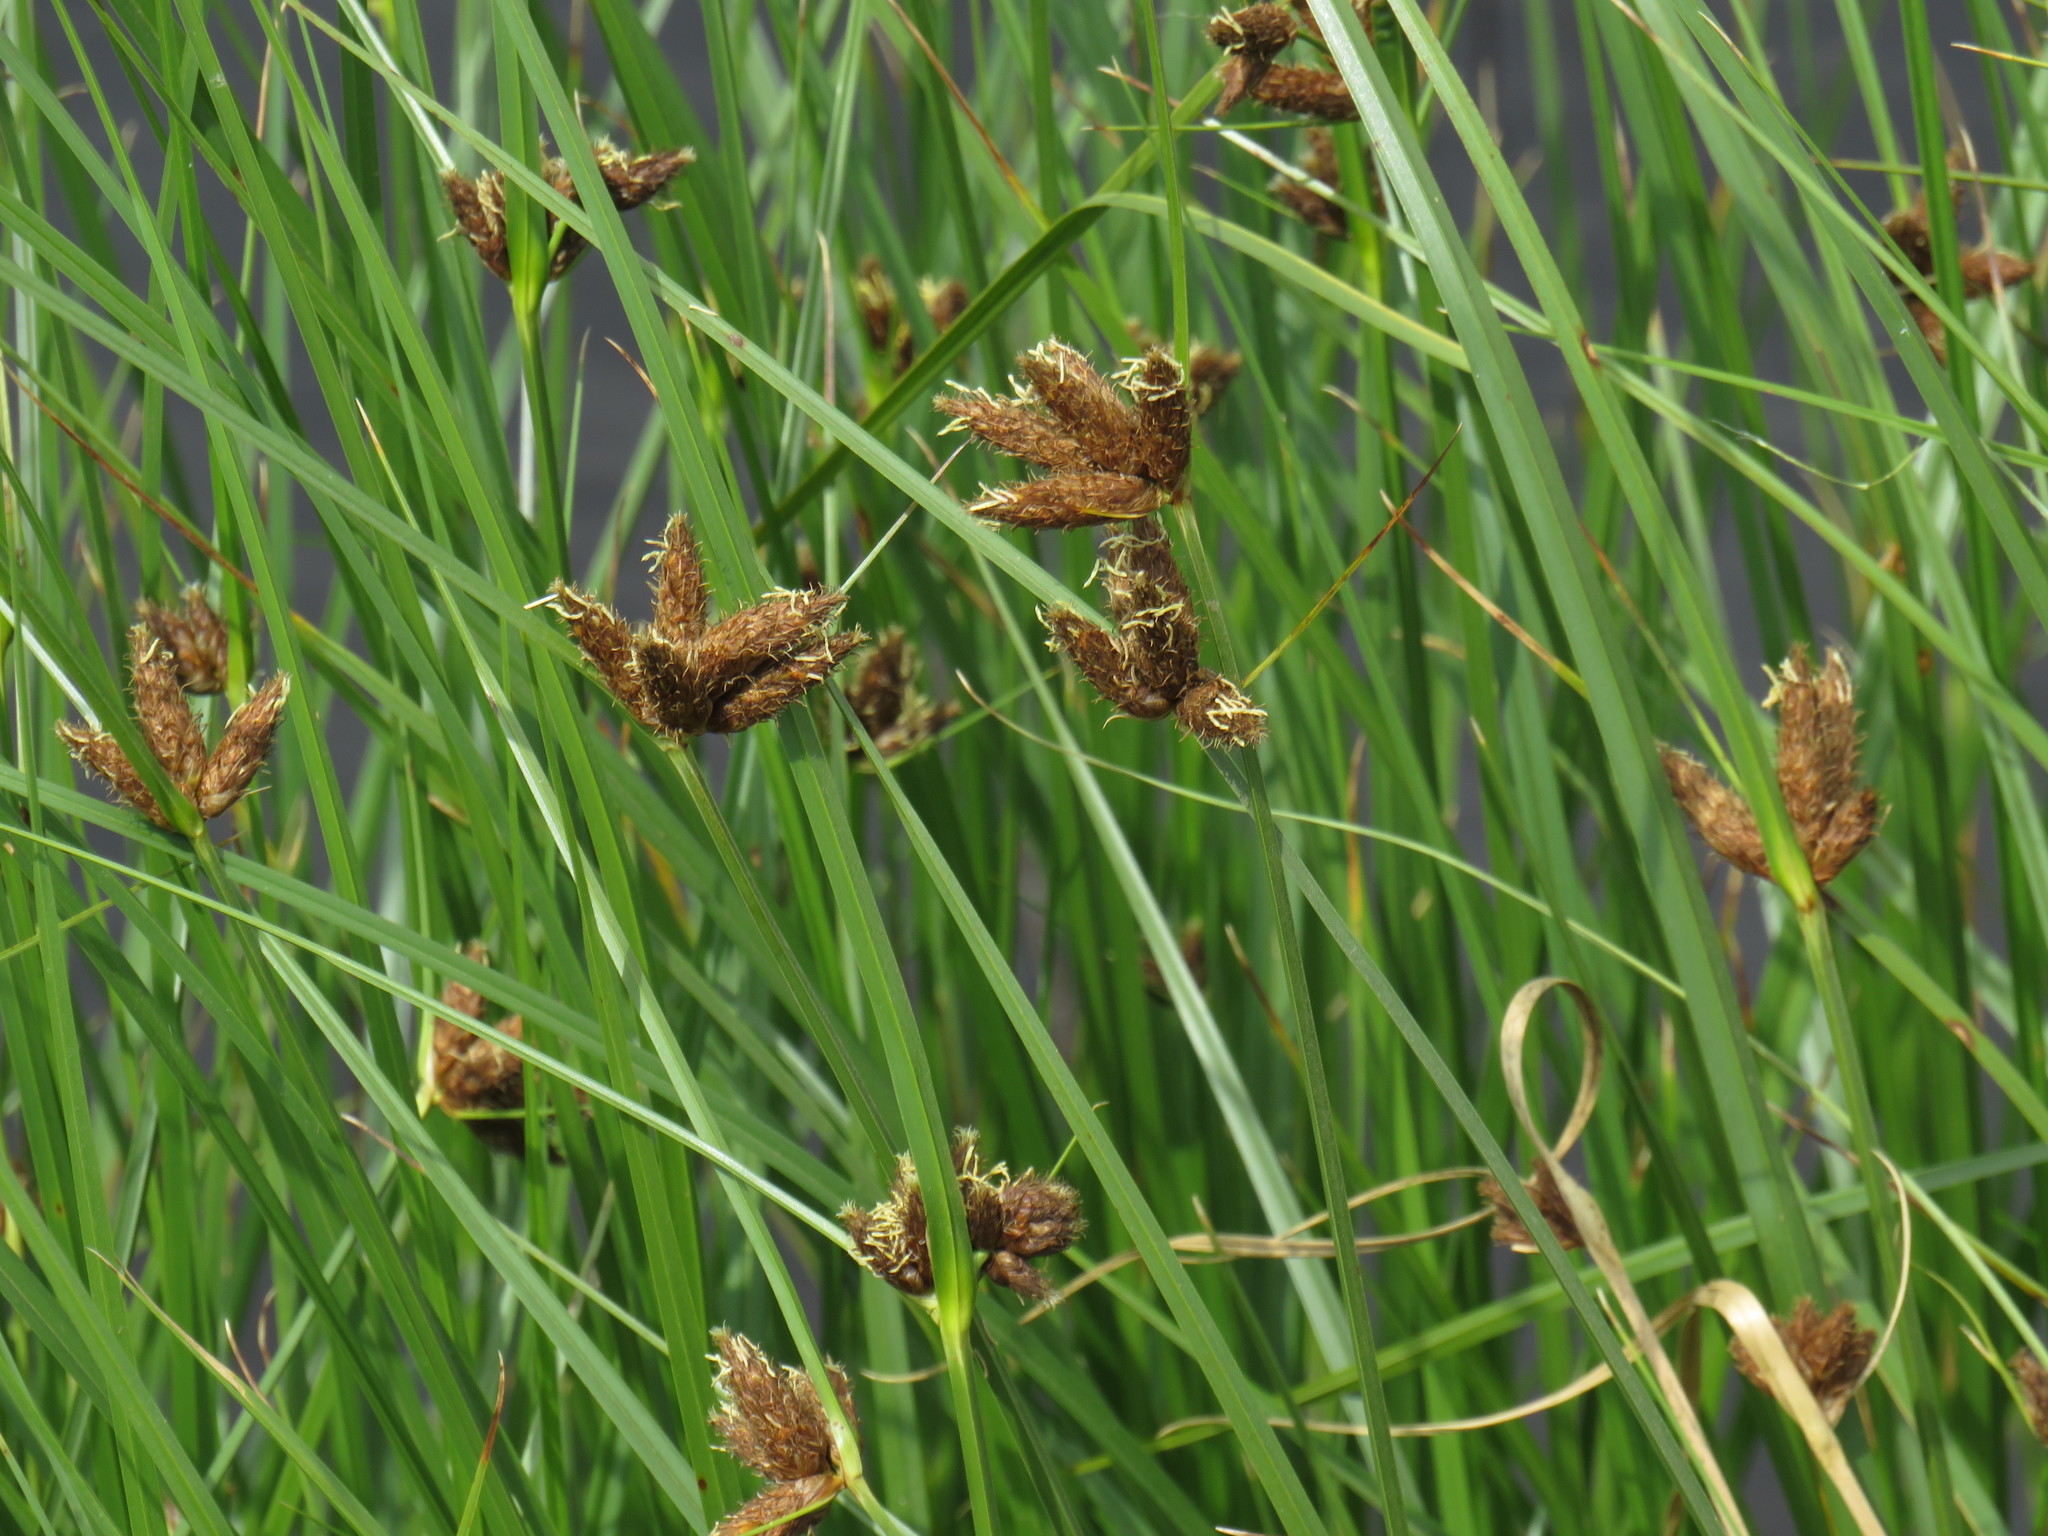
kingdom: Plantae
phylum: Tracheophyta
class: Liliopsida
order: Poales
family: Cyperaceae
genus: Bolboschoenus
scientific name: Bolboschoenus maritimus
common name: Sea club-rush
